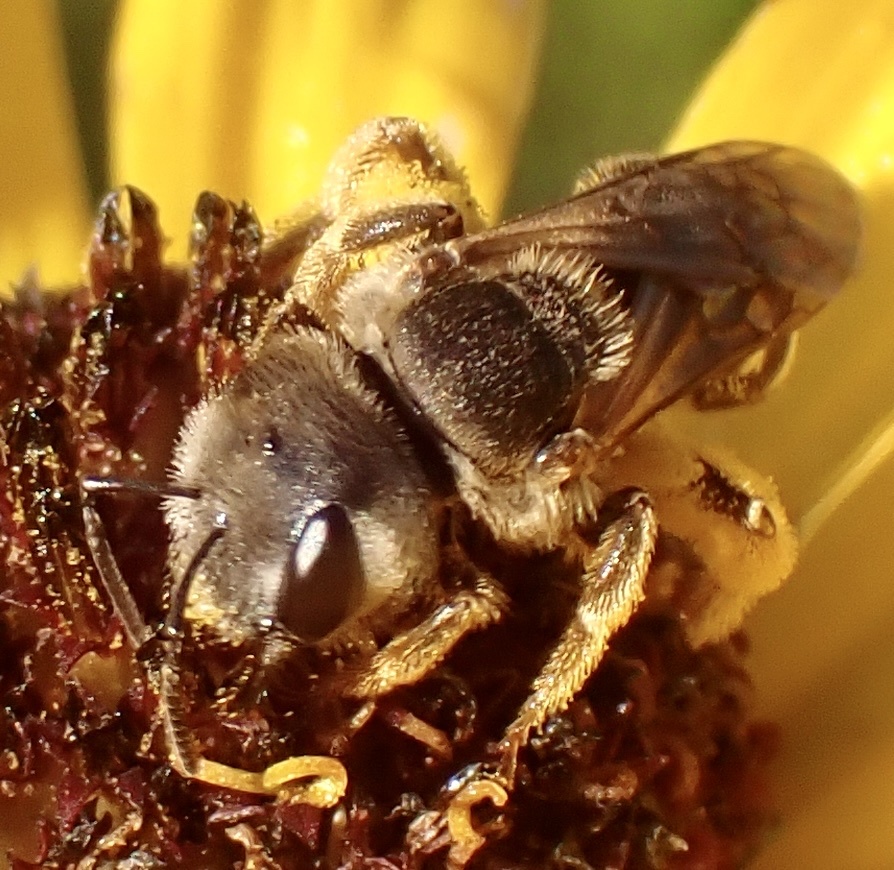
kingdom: Animalia
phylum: Arthropoda
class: Insecta
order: Hymenoptera
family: Halictidae
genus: Halictus
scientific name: Halictus ligatus
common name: Ligated furrow bee
